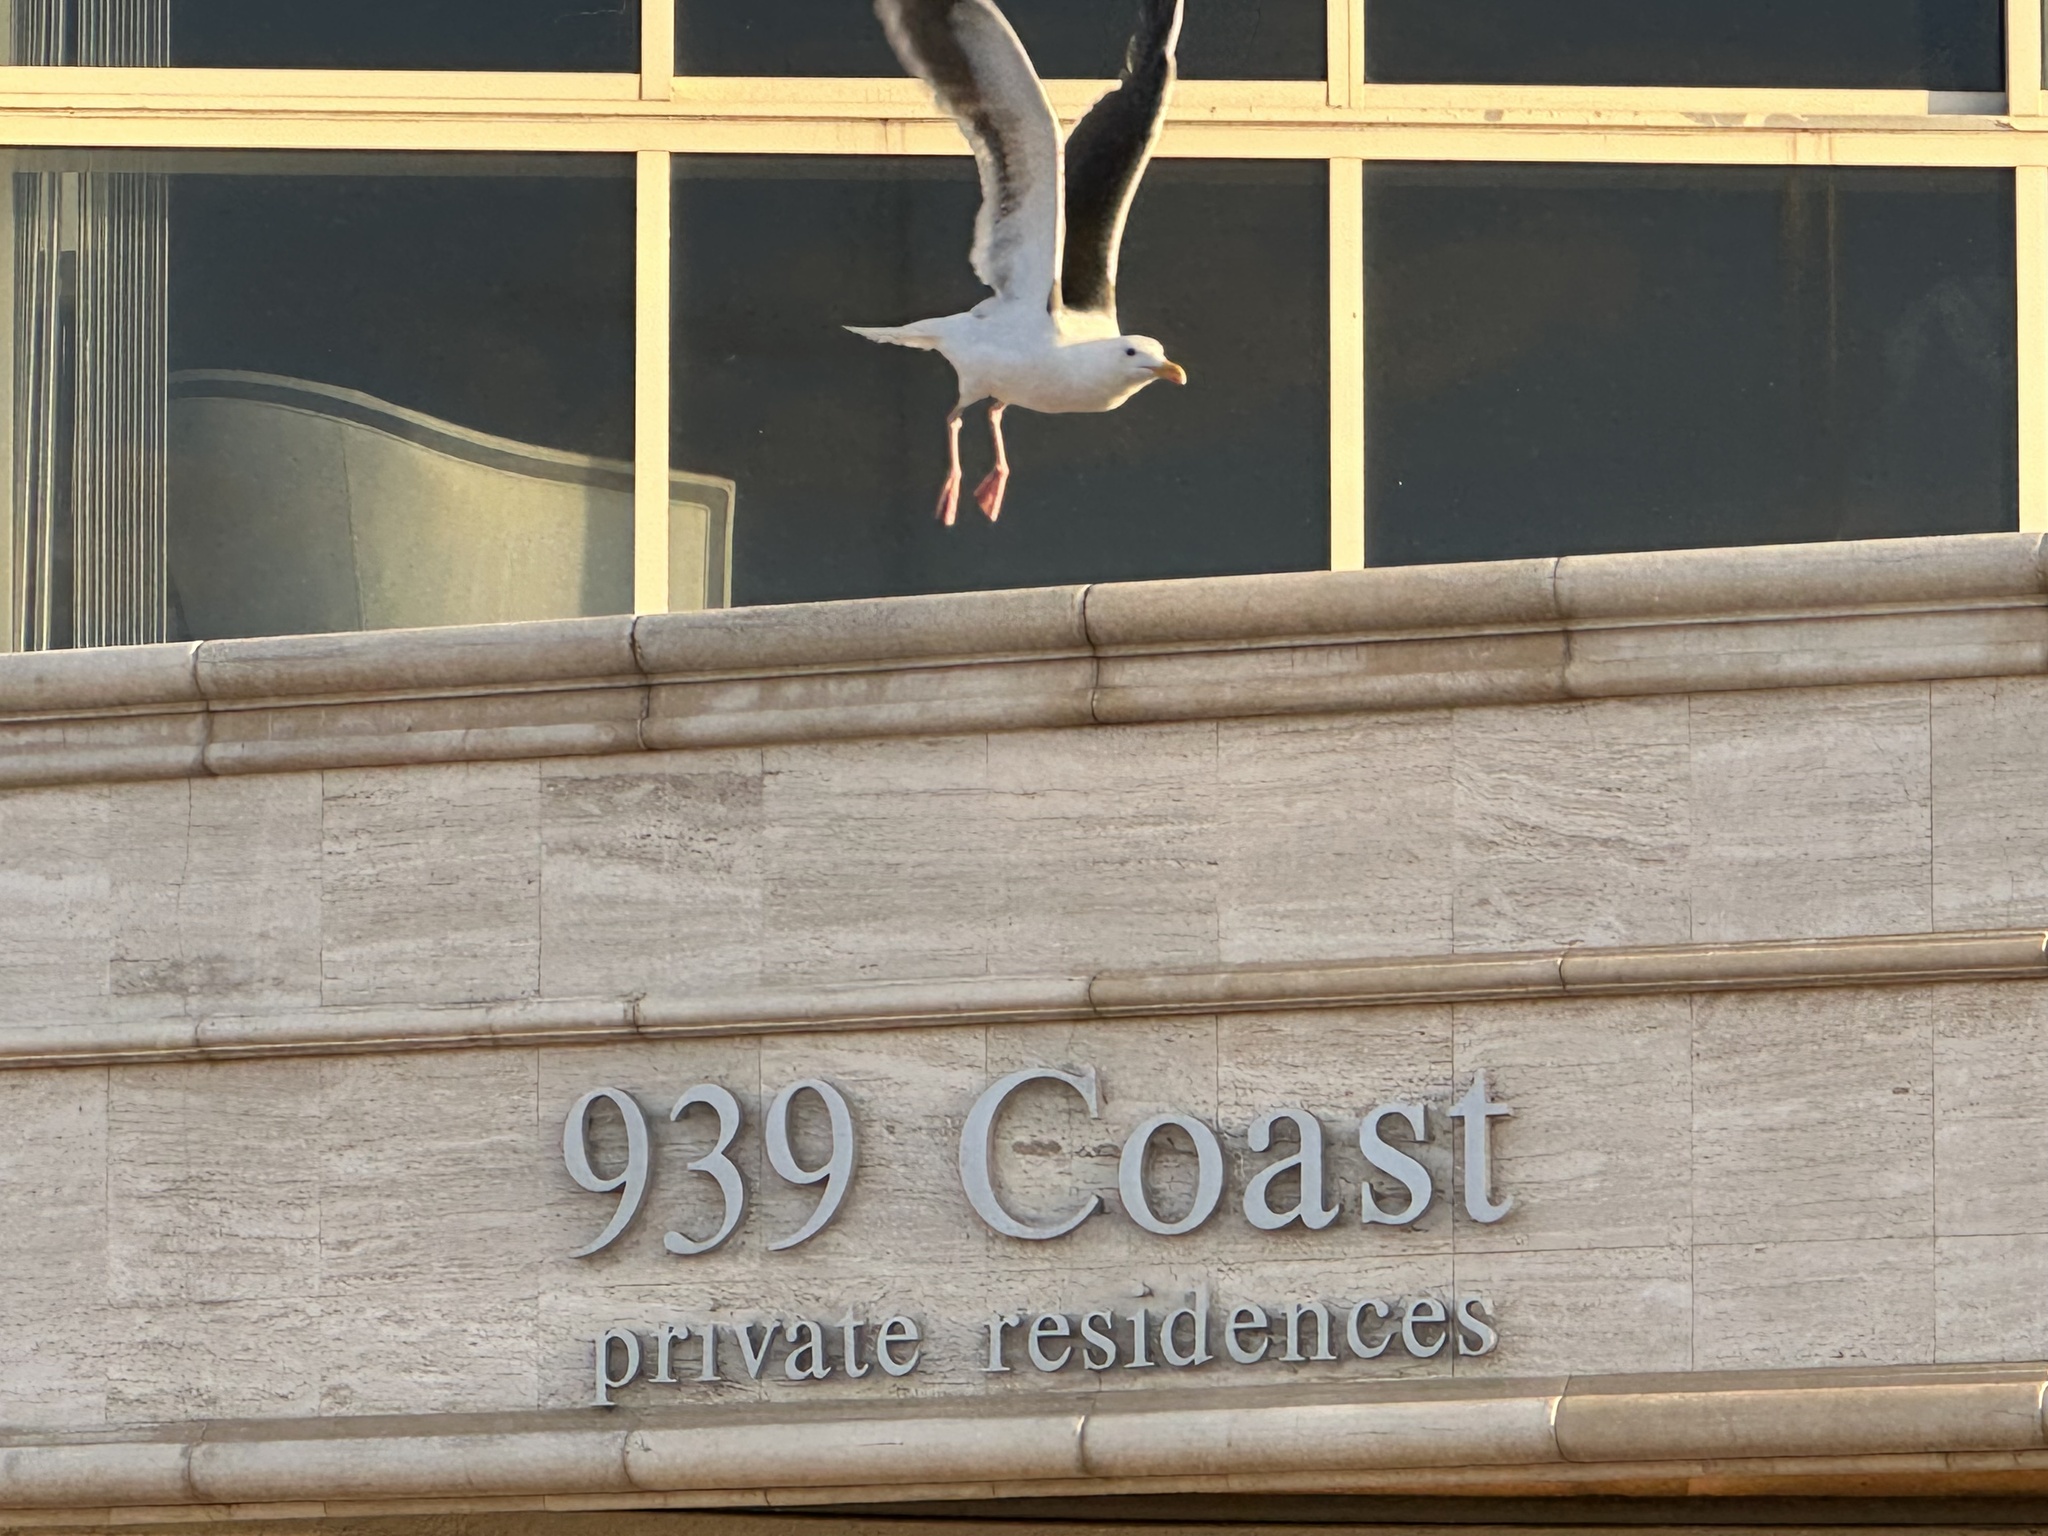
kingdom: Animalia
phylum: Chordata
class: Aves
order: Charadriiformes
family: Laridae
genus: Larus
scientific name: Larus occidentalis
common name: Western gull
